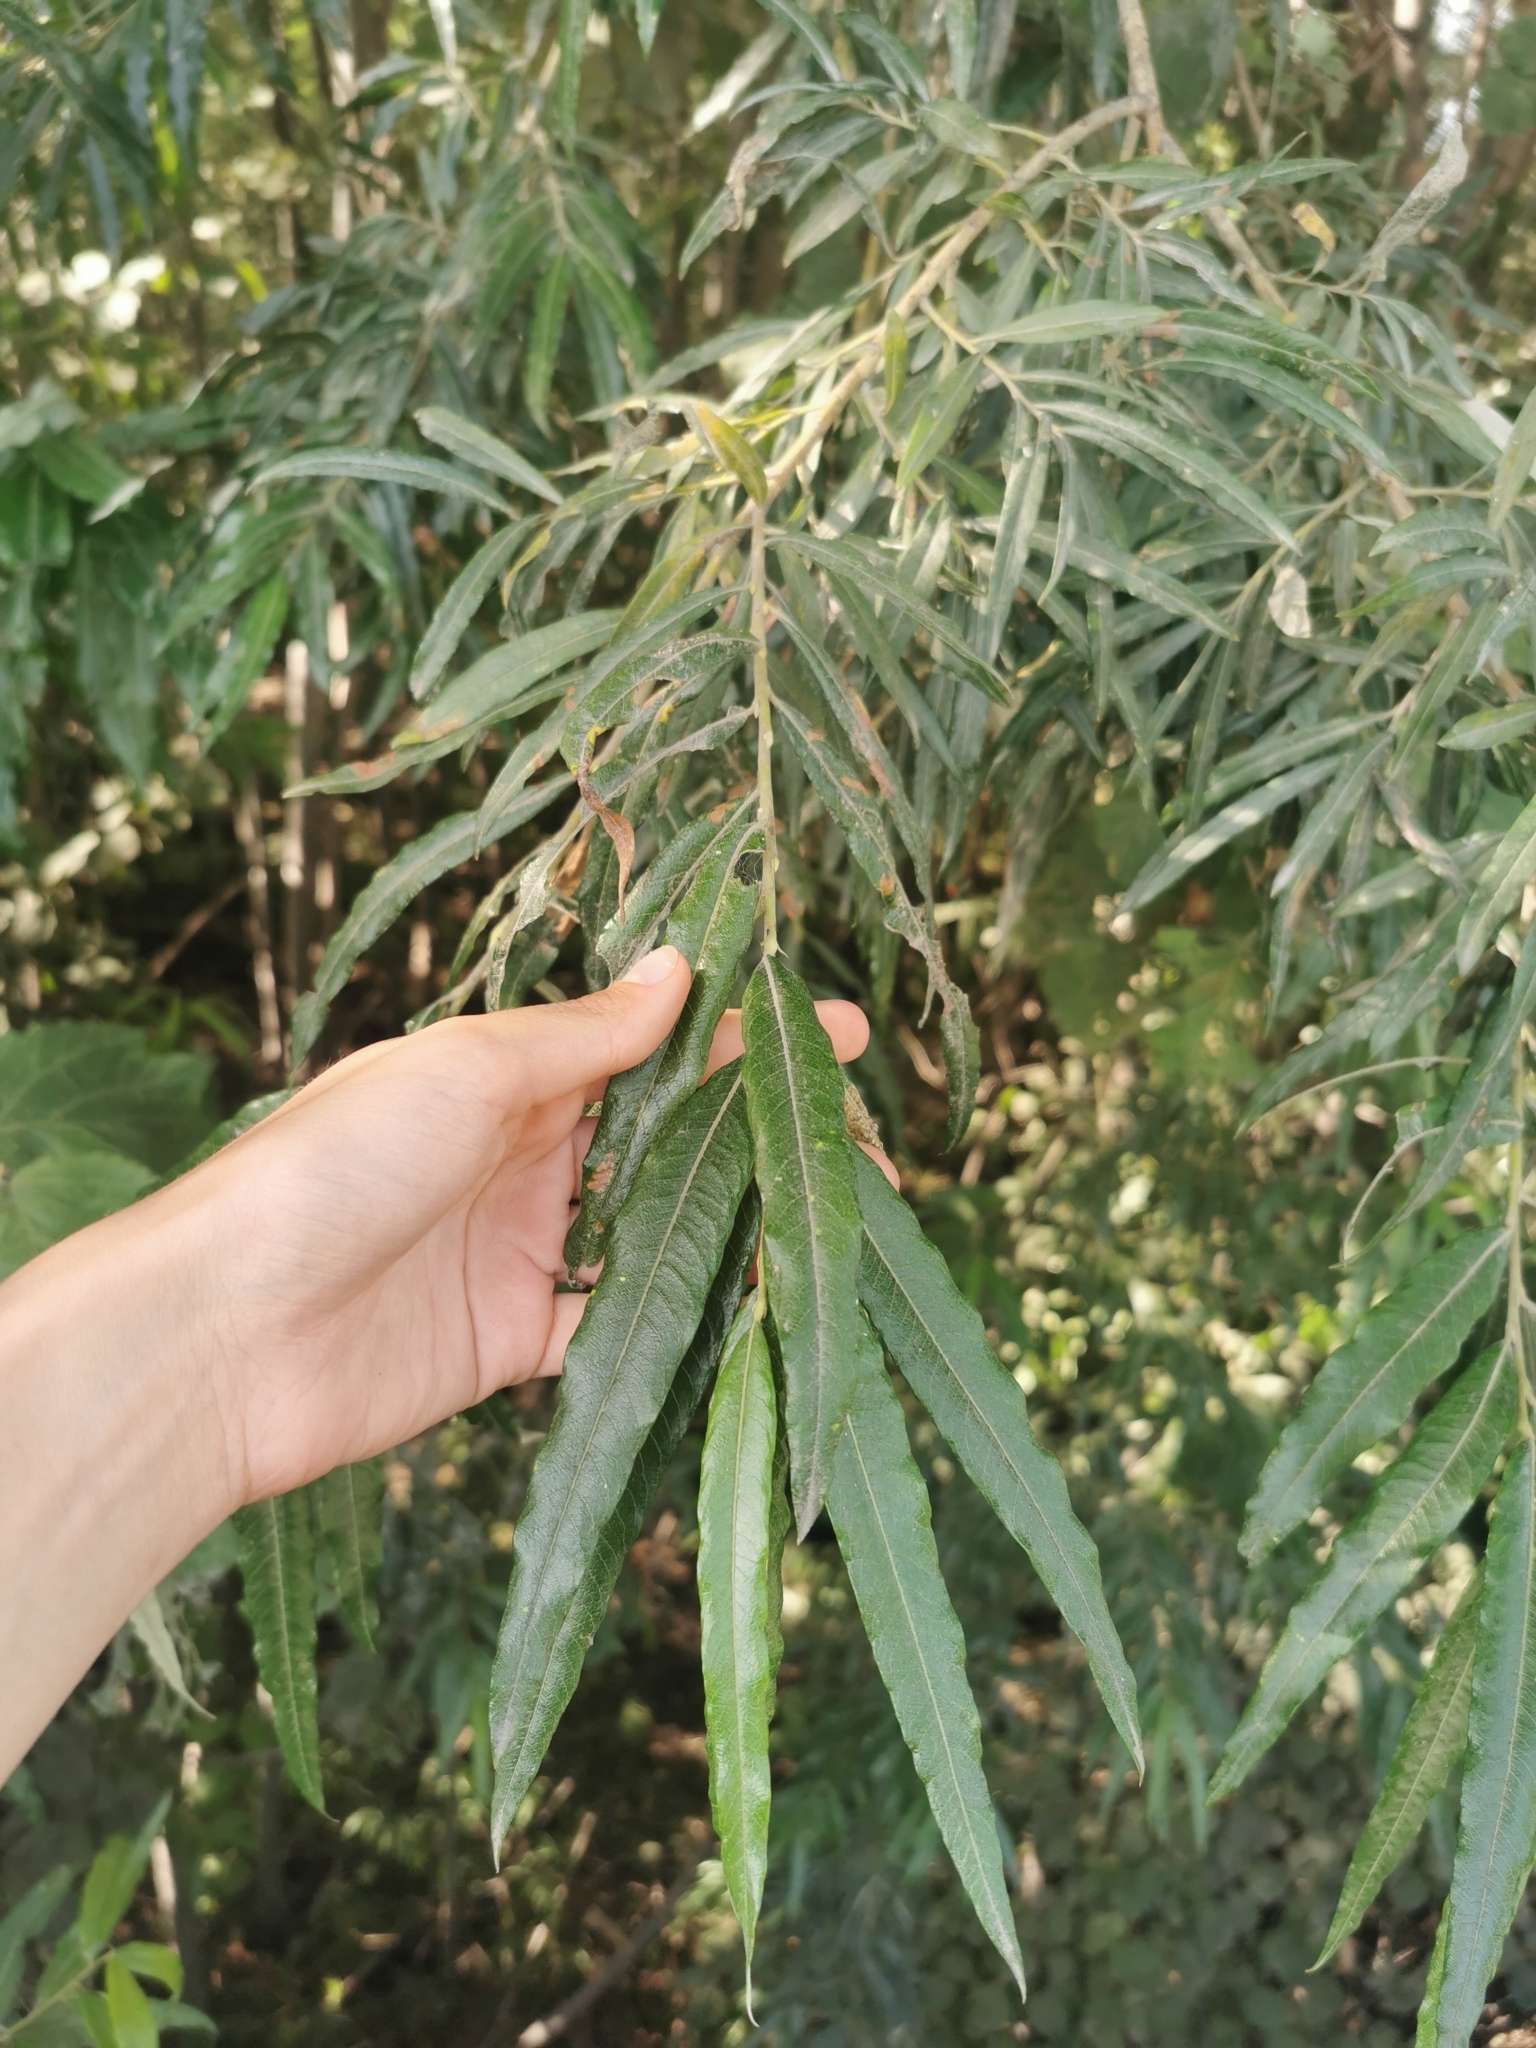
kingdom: Plantae
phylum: Tracheophyta
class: Magnoliopsida
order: Malpighiales
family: Salicaceae
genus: Salix
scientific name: Salix schwerinii
